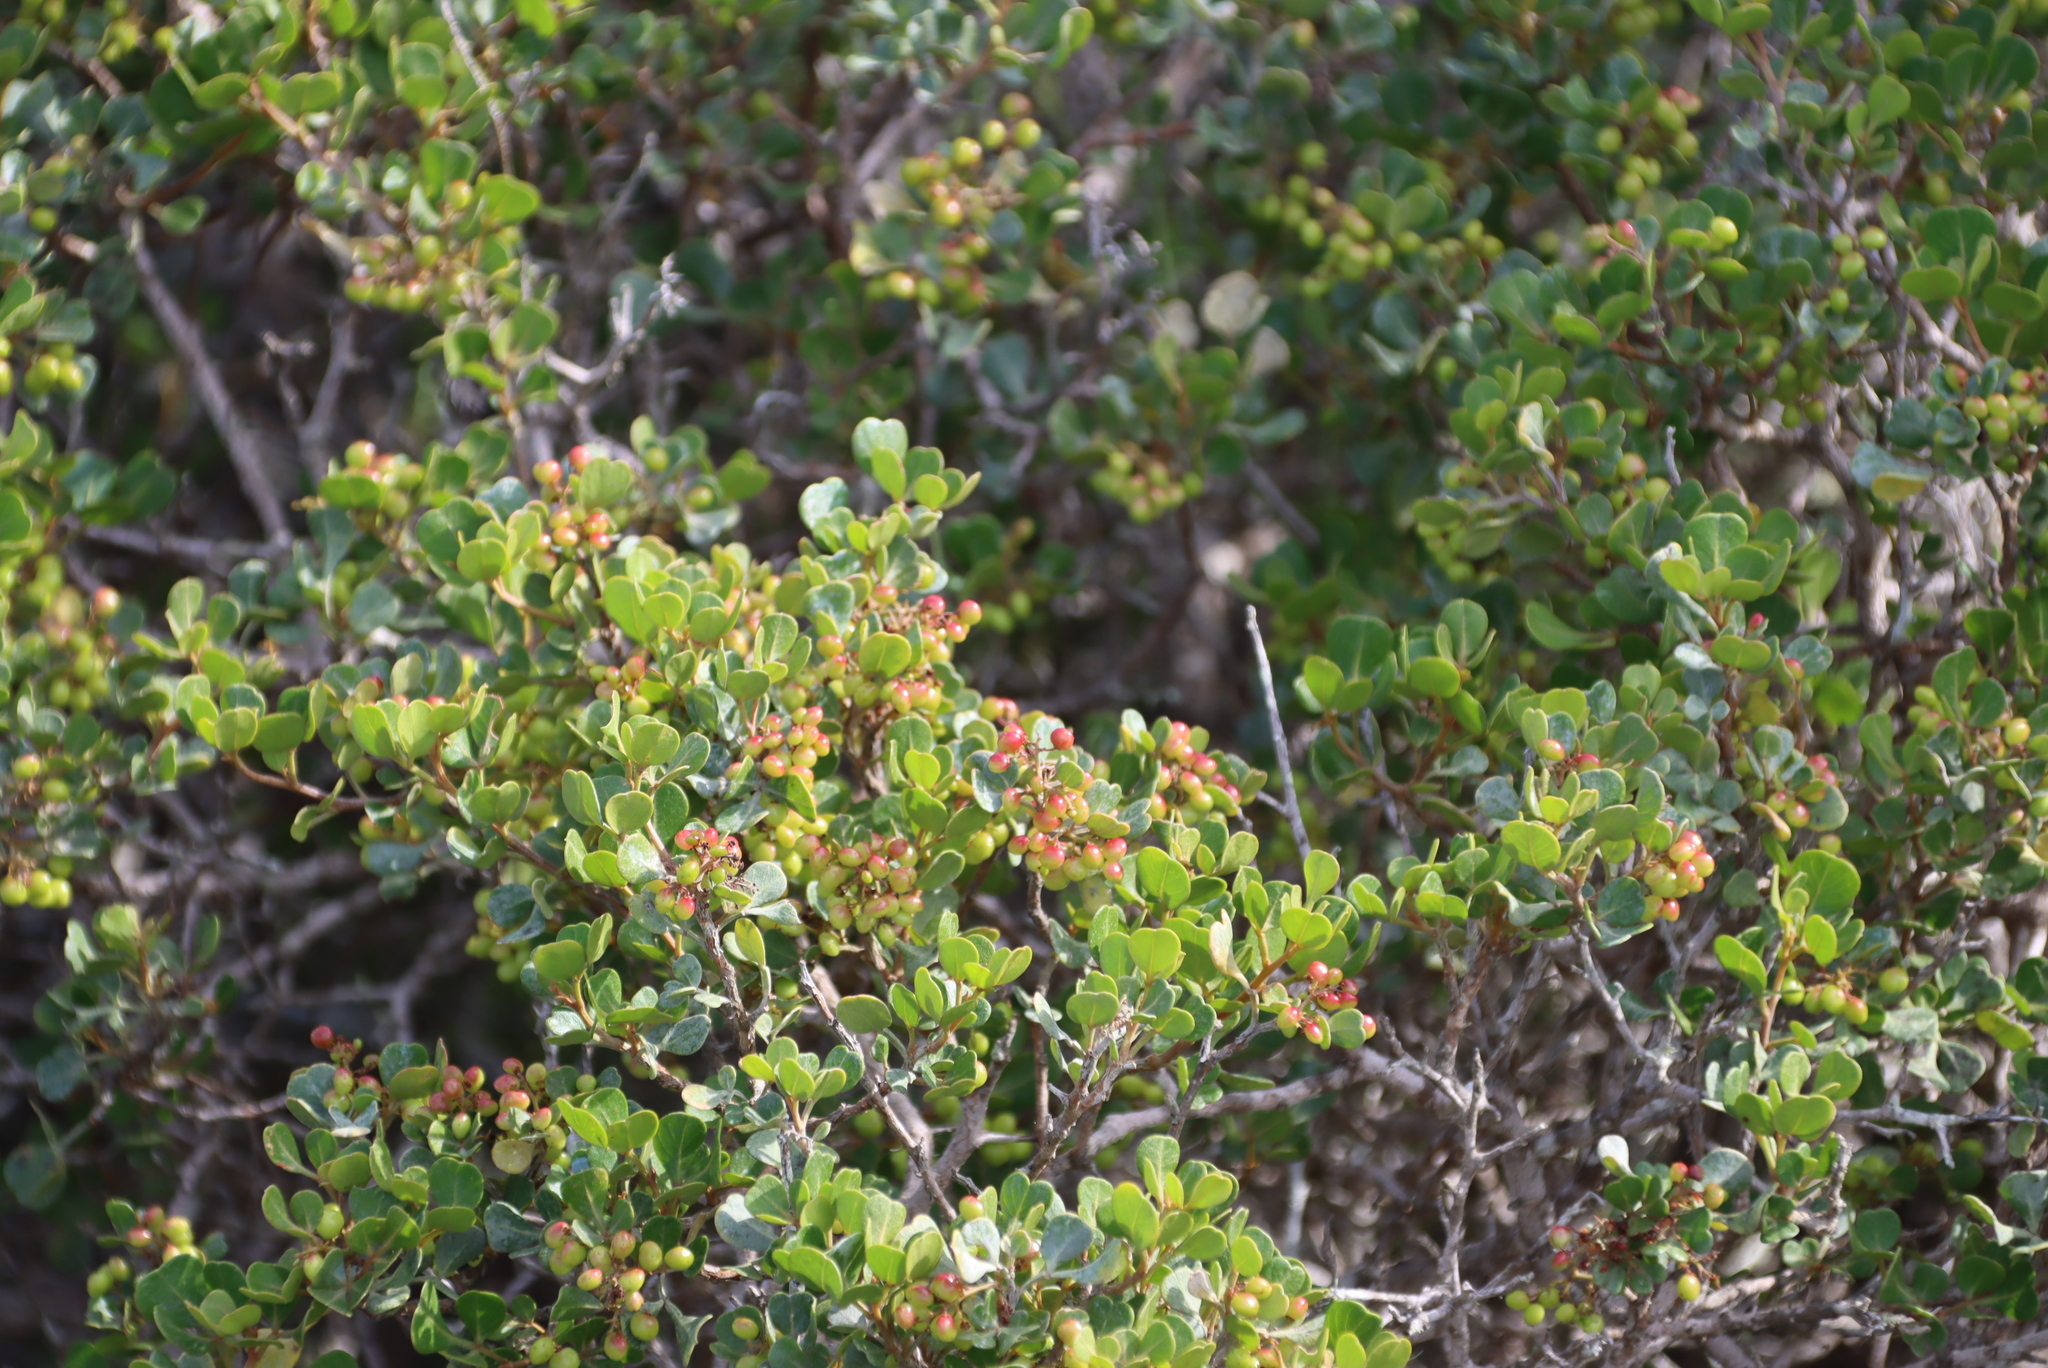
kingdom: Plantae
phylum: Tracheophyta
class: Magnoliopsida
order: Sapindales
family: Anacardiaceae
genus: Searsia
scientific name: Searsia glauca
